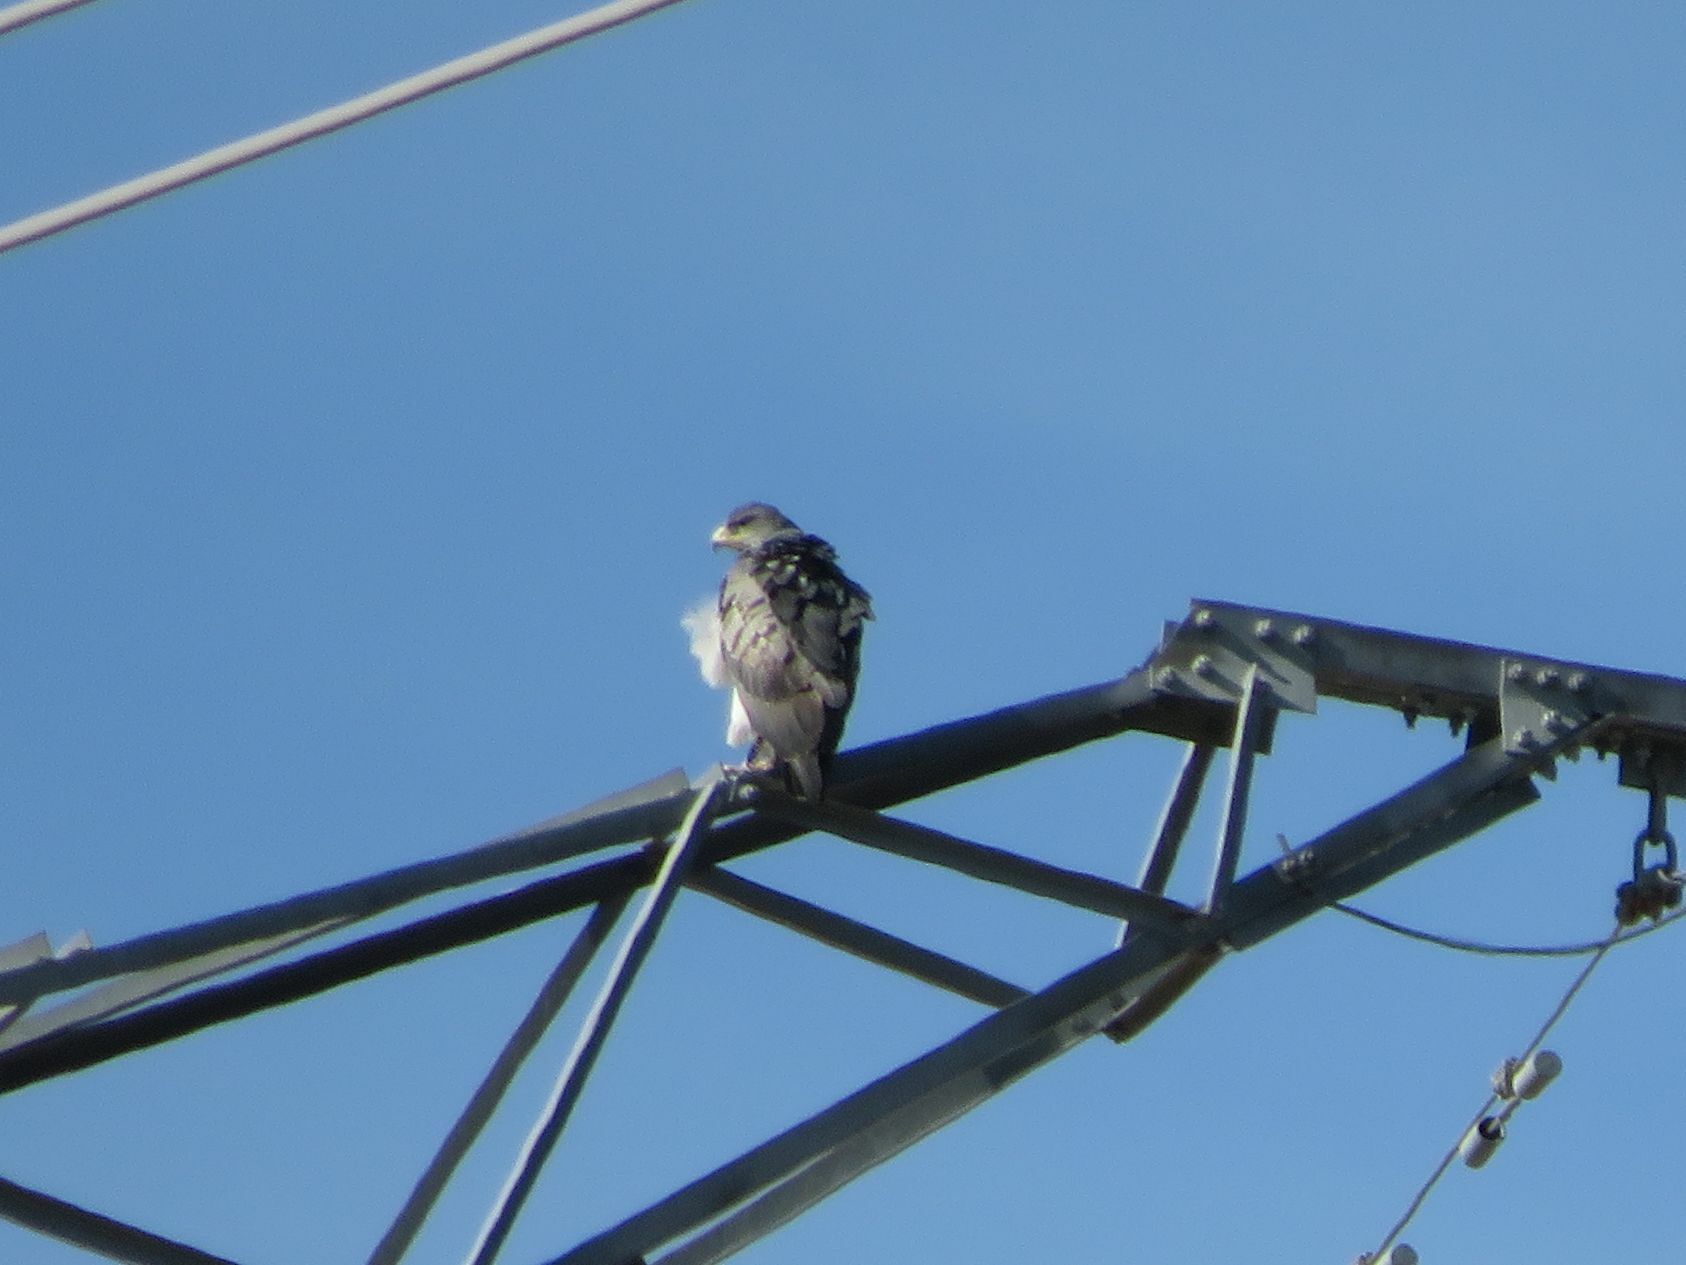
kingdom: Animalia
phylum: Chordata
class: Aves
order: Accipitriformes
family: Accipitridae
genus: Geranoaetus
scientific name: Geranoaetus melanoleucus
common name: Black-chested buzzard-eagle
